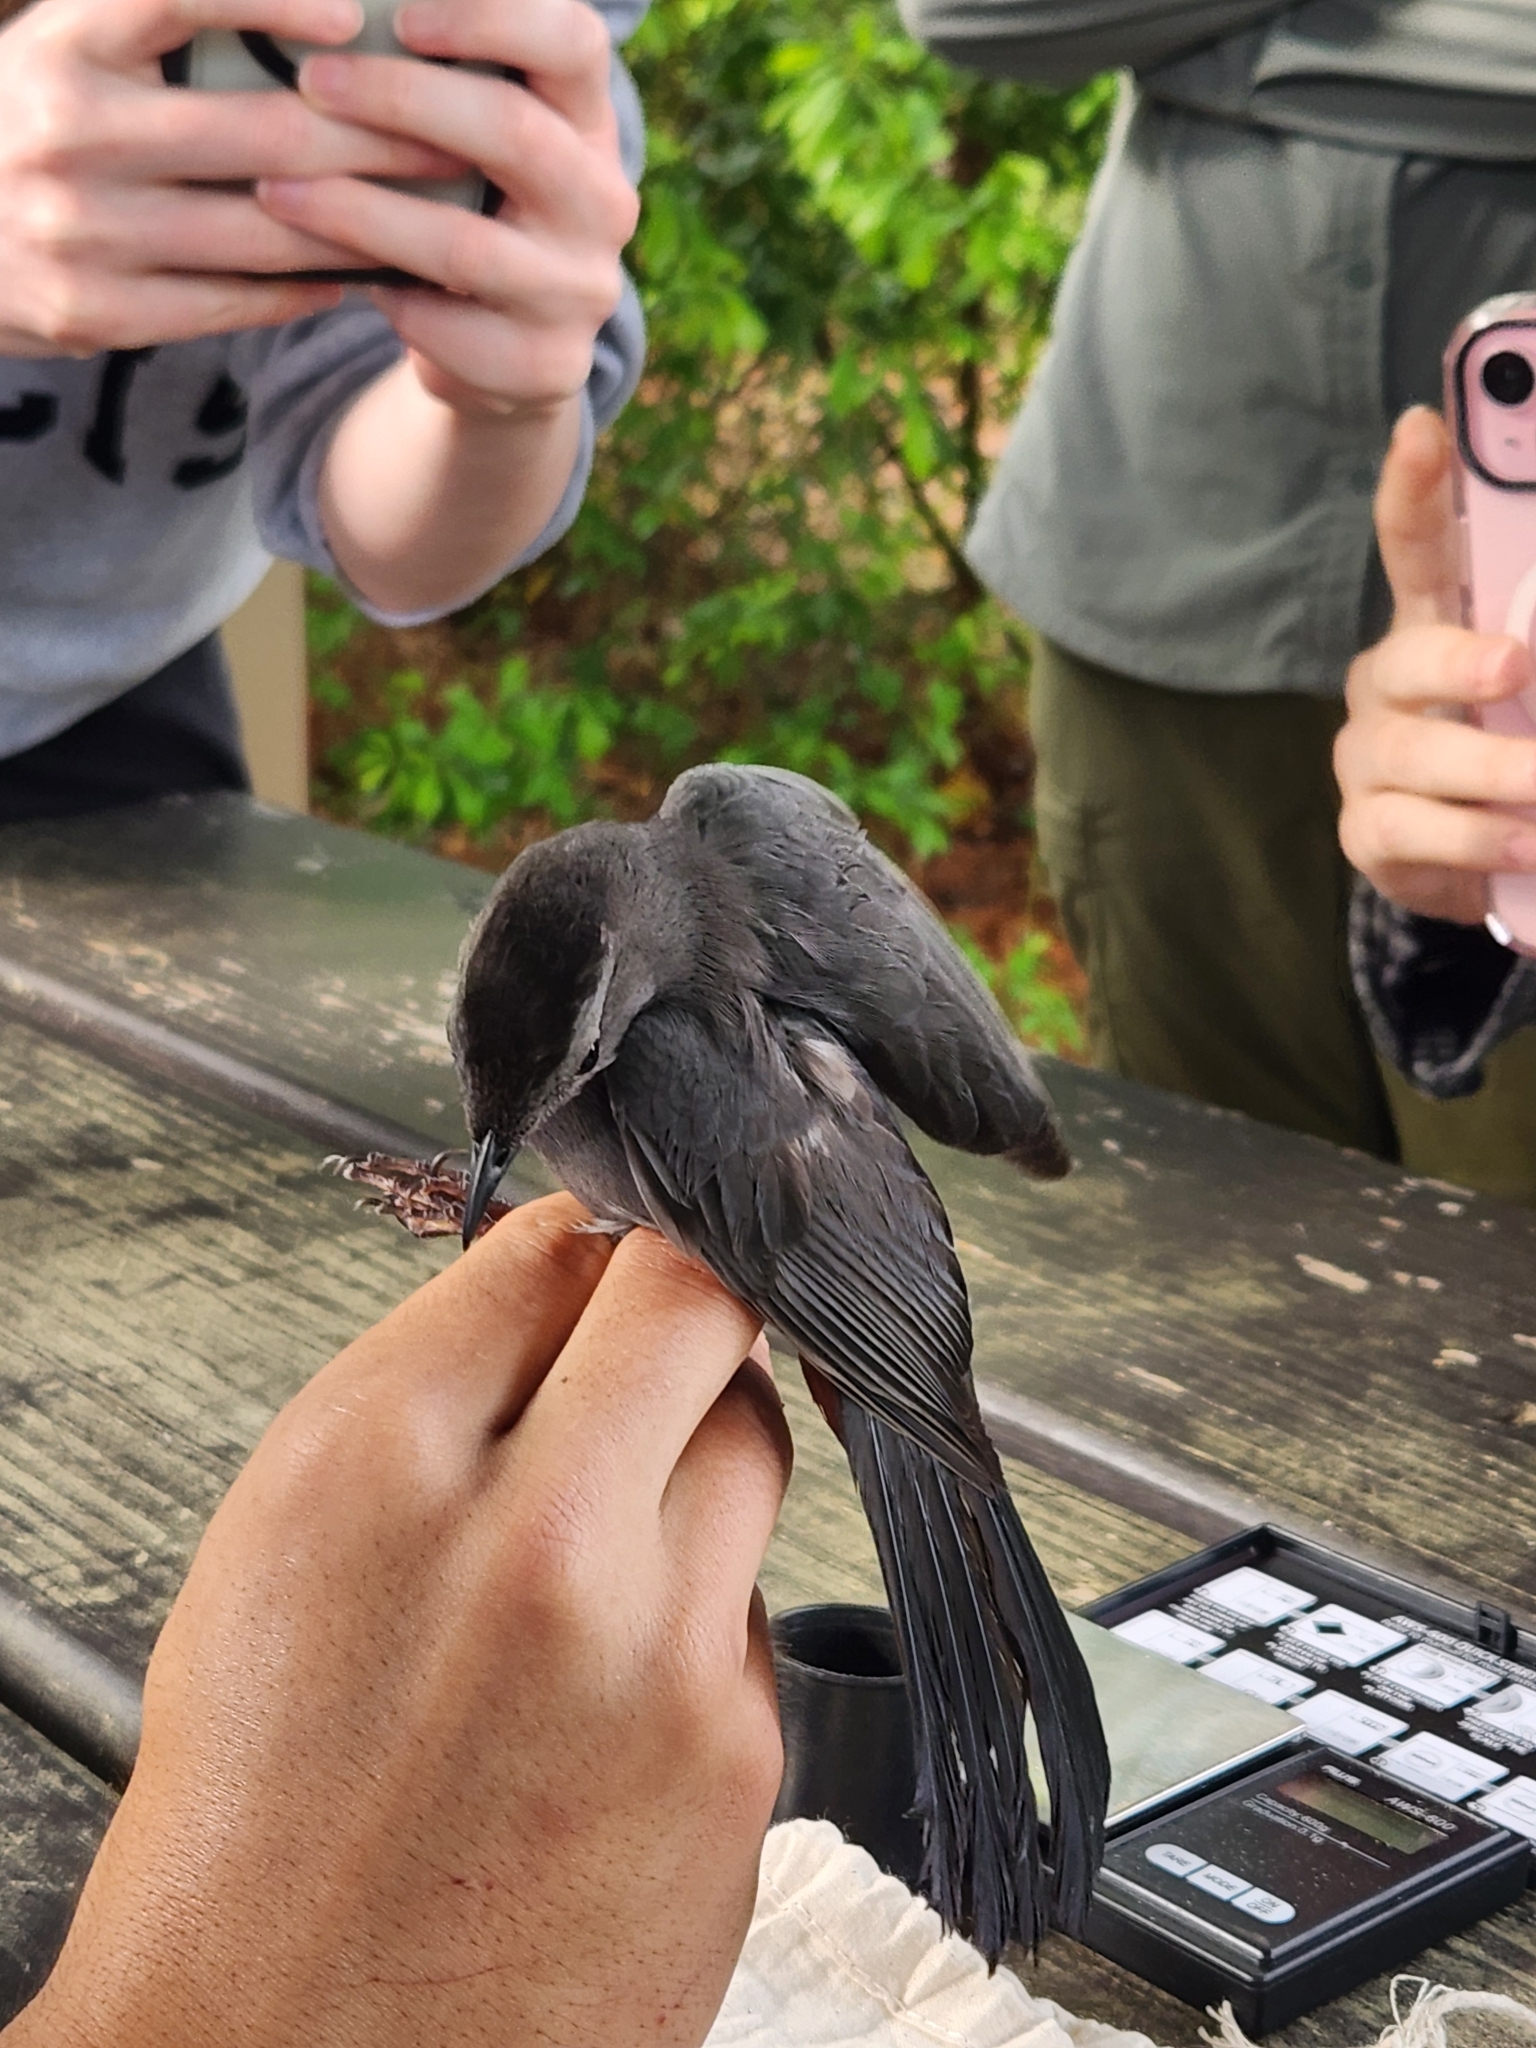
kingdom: Animalia
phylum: Chordata
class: Aves
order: Passeriformes
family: Mimidae
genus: Dumetella
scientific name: Dumetella carolinensis
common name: Gray catbird
